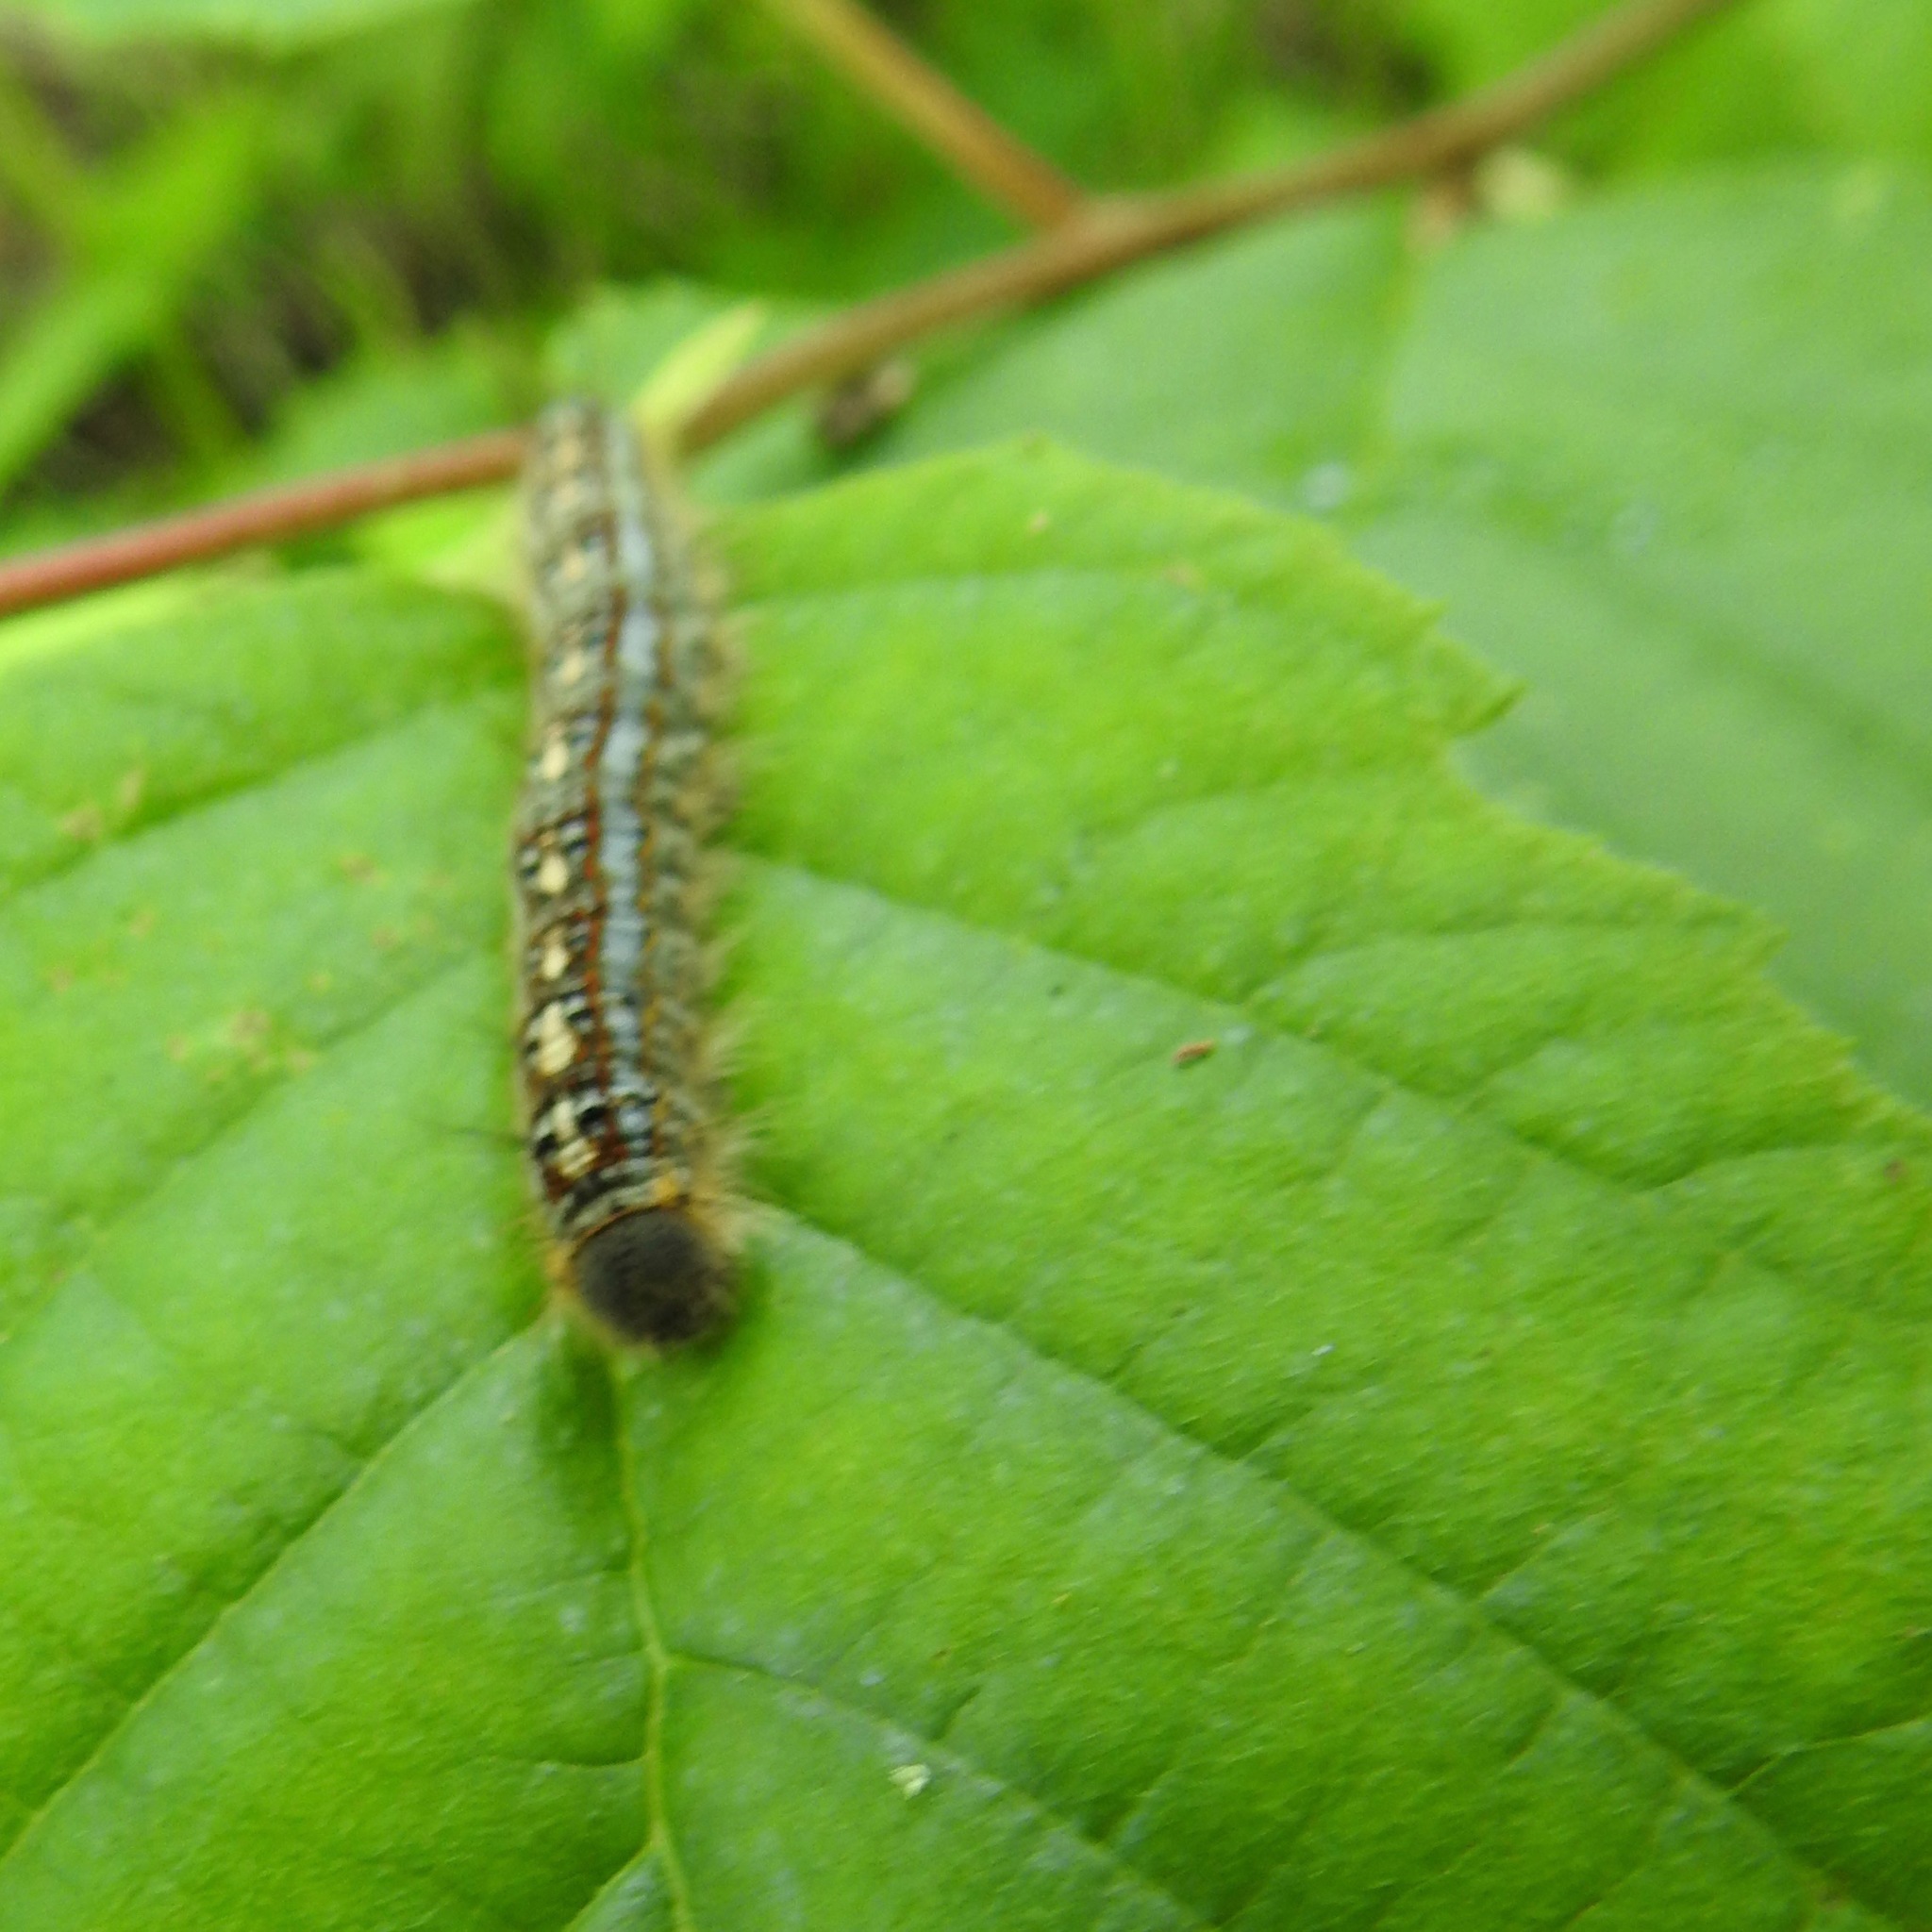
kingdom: Animalia
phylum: Arthropoda
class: Insecta
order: Lepidoptera
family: Lasiocampidae
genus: Malacosoma
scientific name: Malacosoma disstria
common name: Forest tent caterpillar
